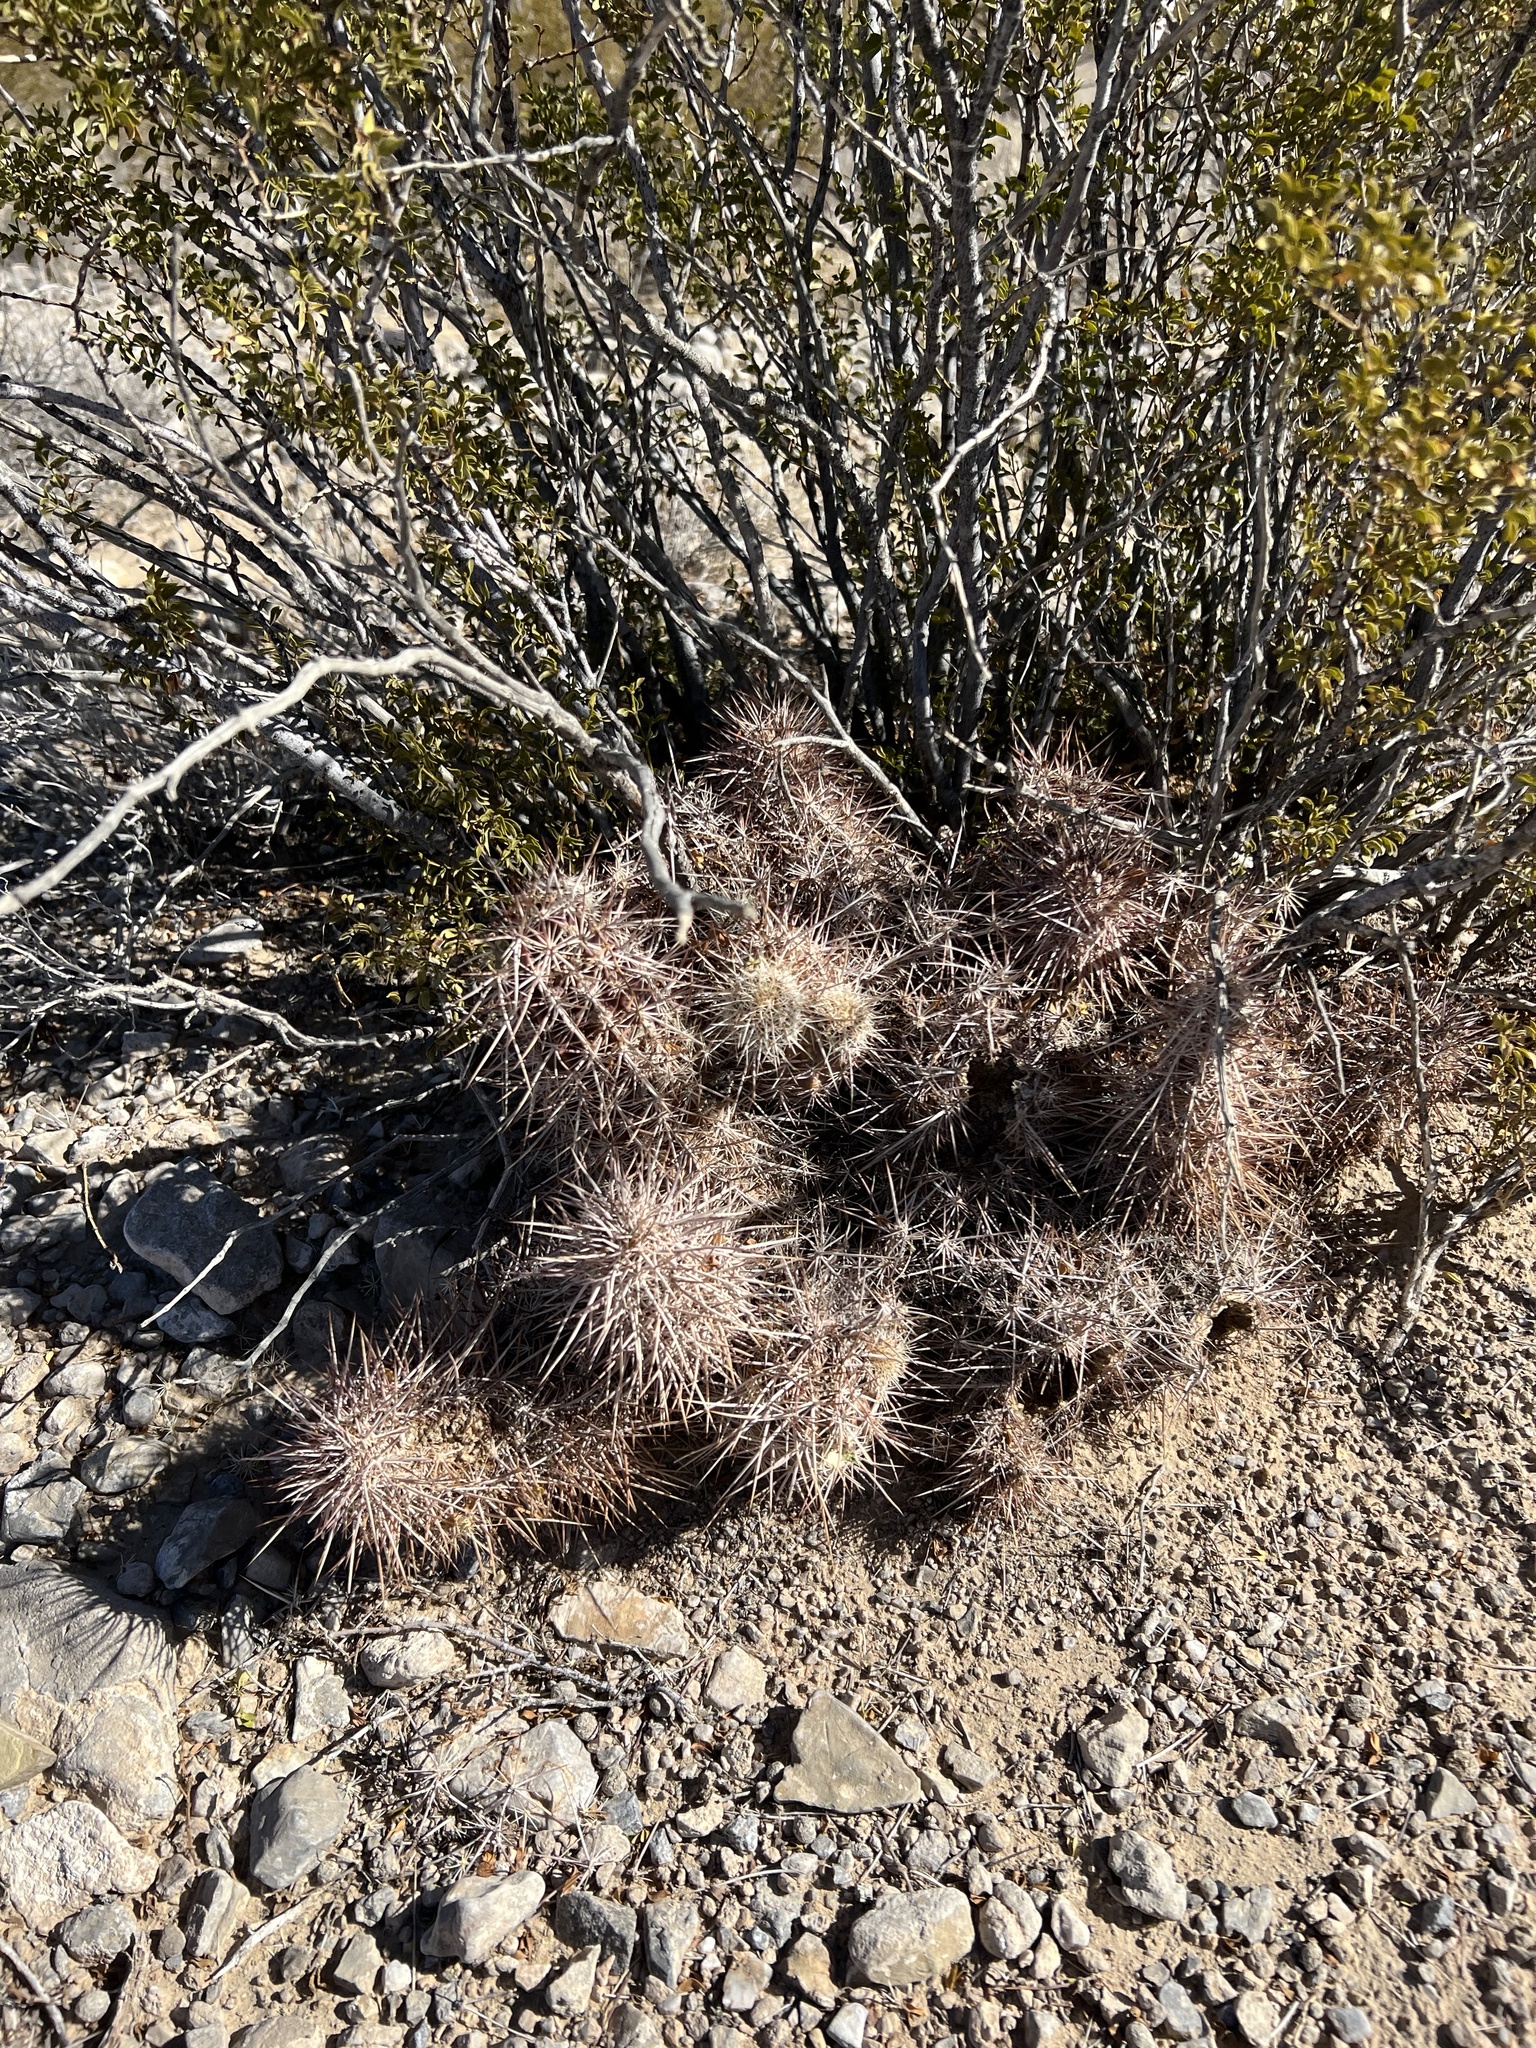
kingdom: Plantae
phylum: Tracheophyta
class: Magnoliopsida
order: Caryophyllales
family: Cactaceae
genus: Echinocereus
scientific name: Echinocereus engelmannii
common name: Engelmann's hedgehog cactus
